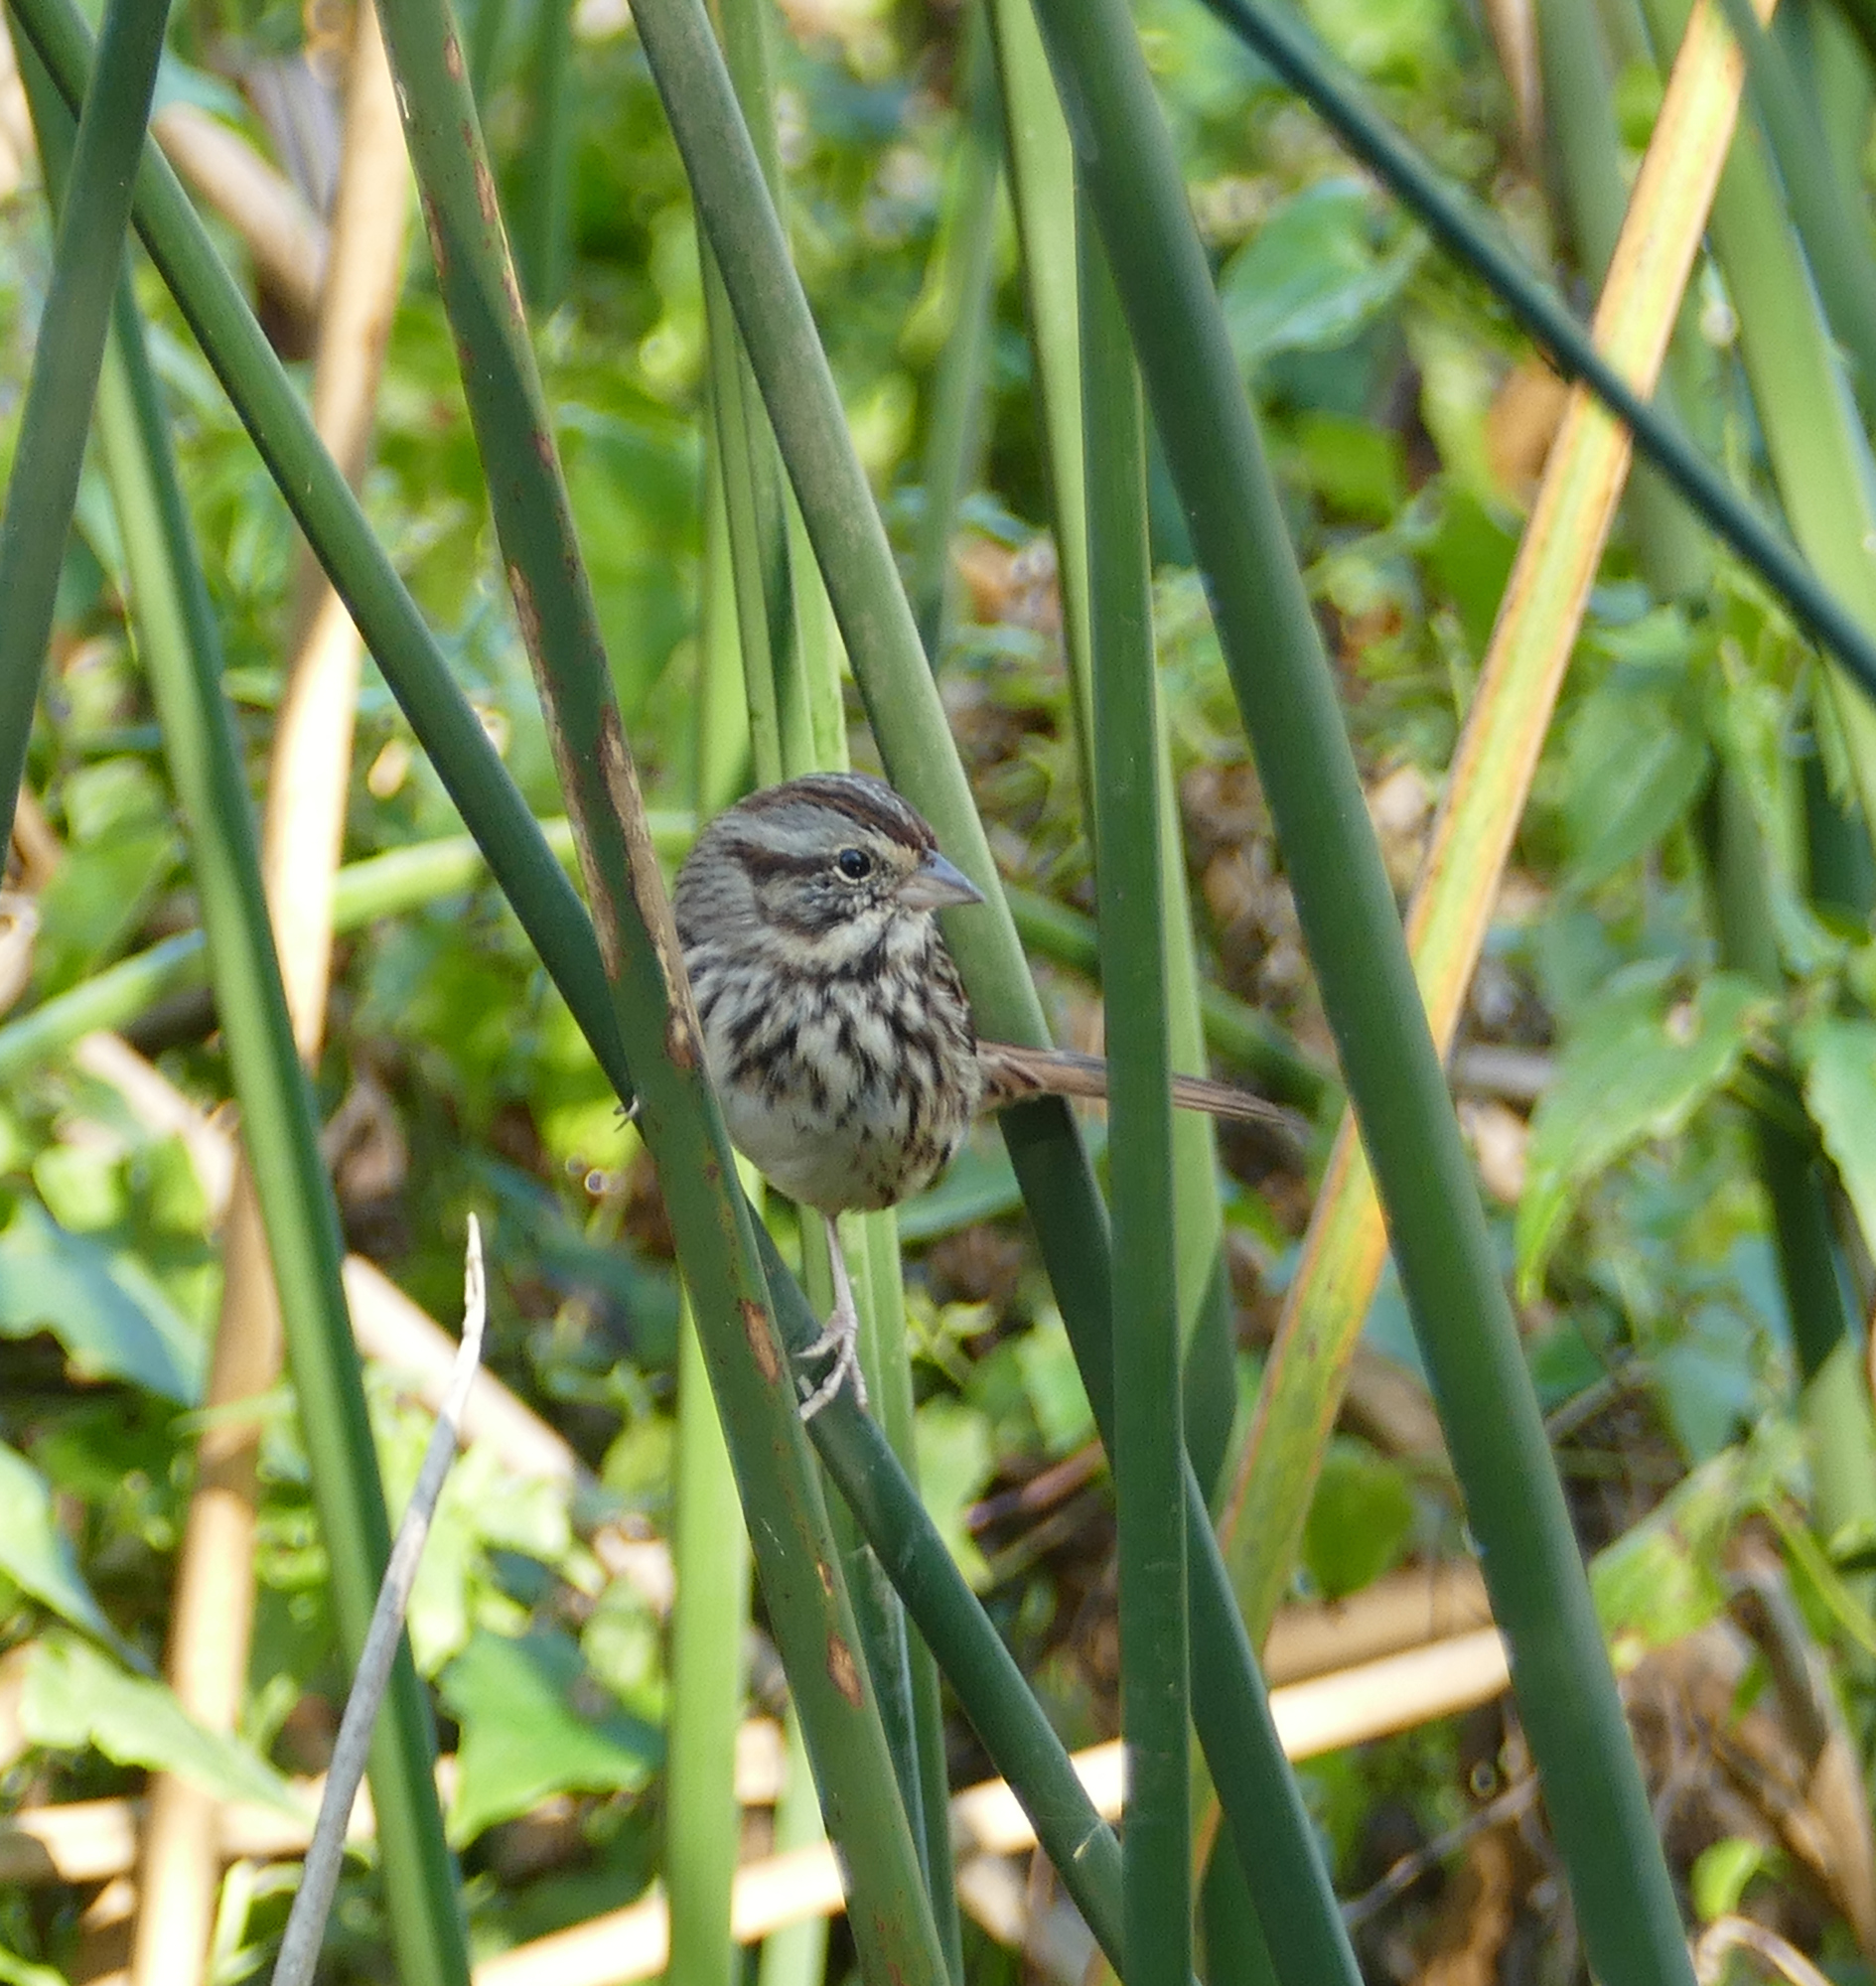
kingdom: Animalia
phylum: Chordata
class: Aves
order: Passeriformes
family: Passerellidae
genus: Melospiza
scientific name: Melospiza melodia
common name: Song sparrow
